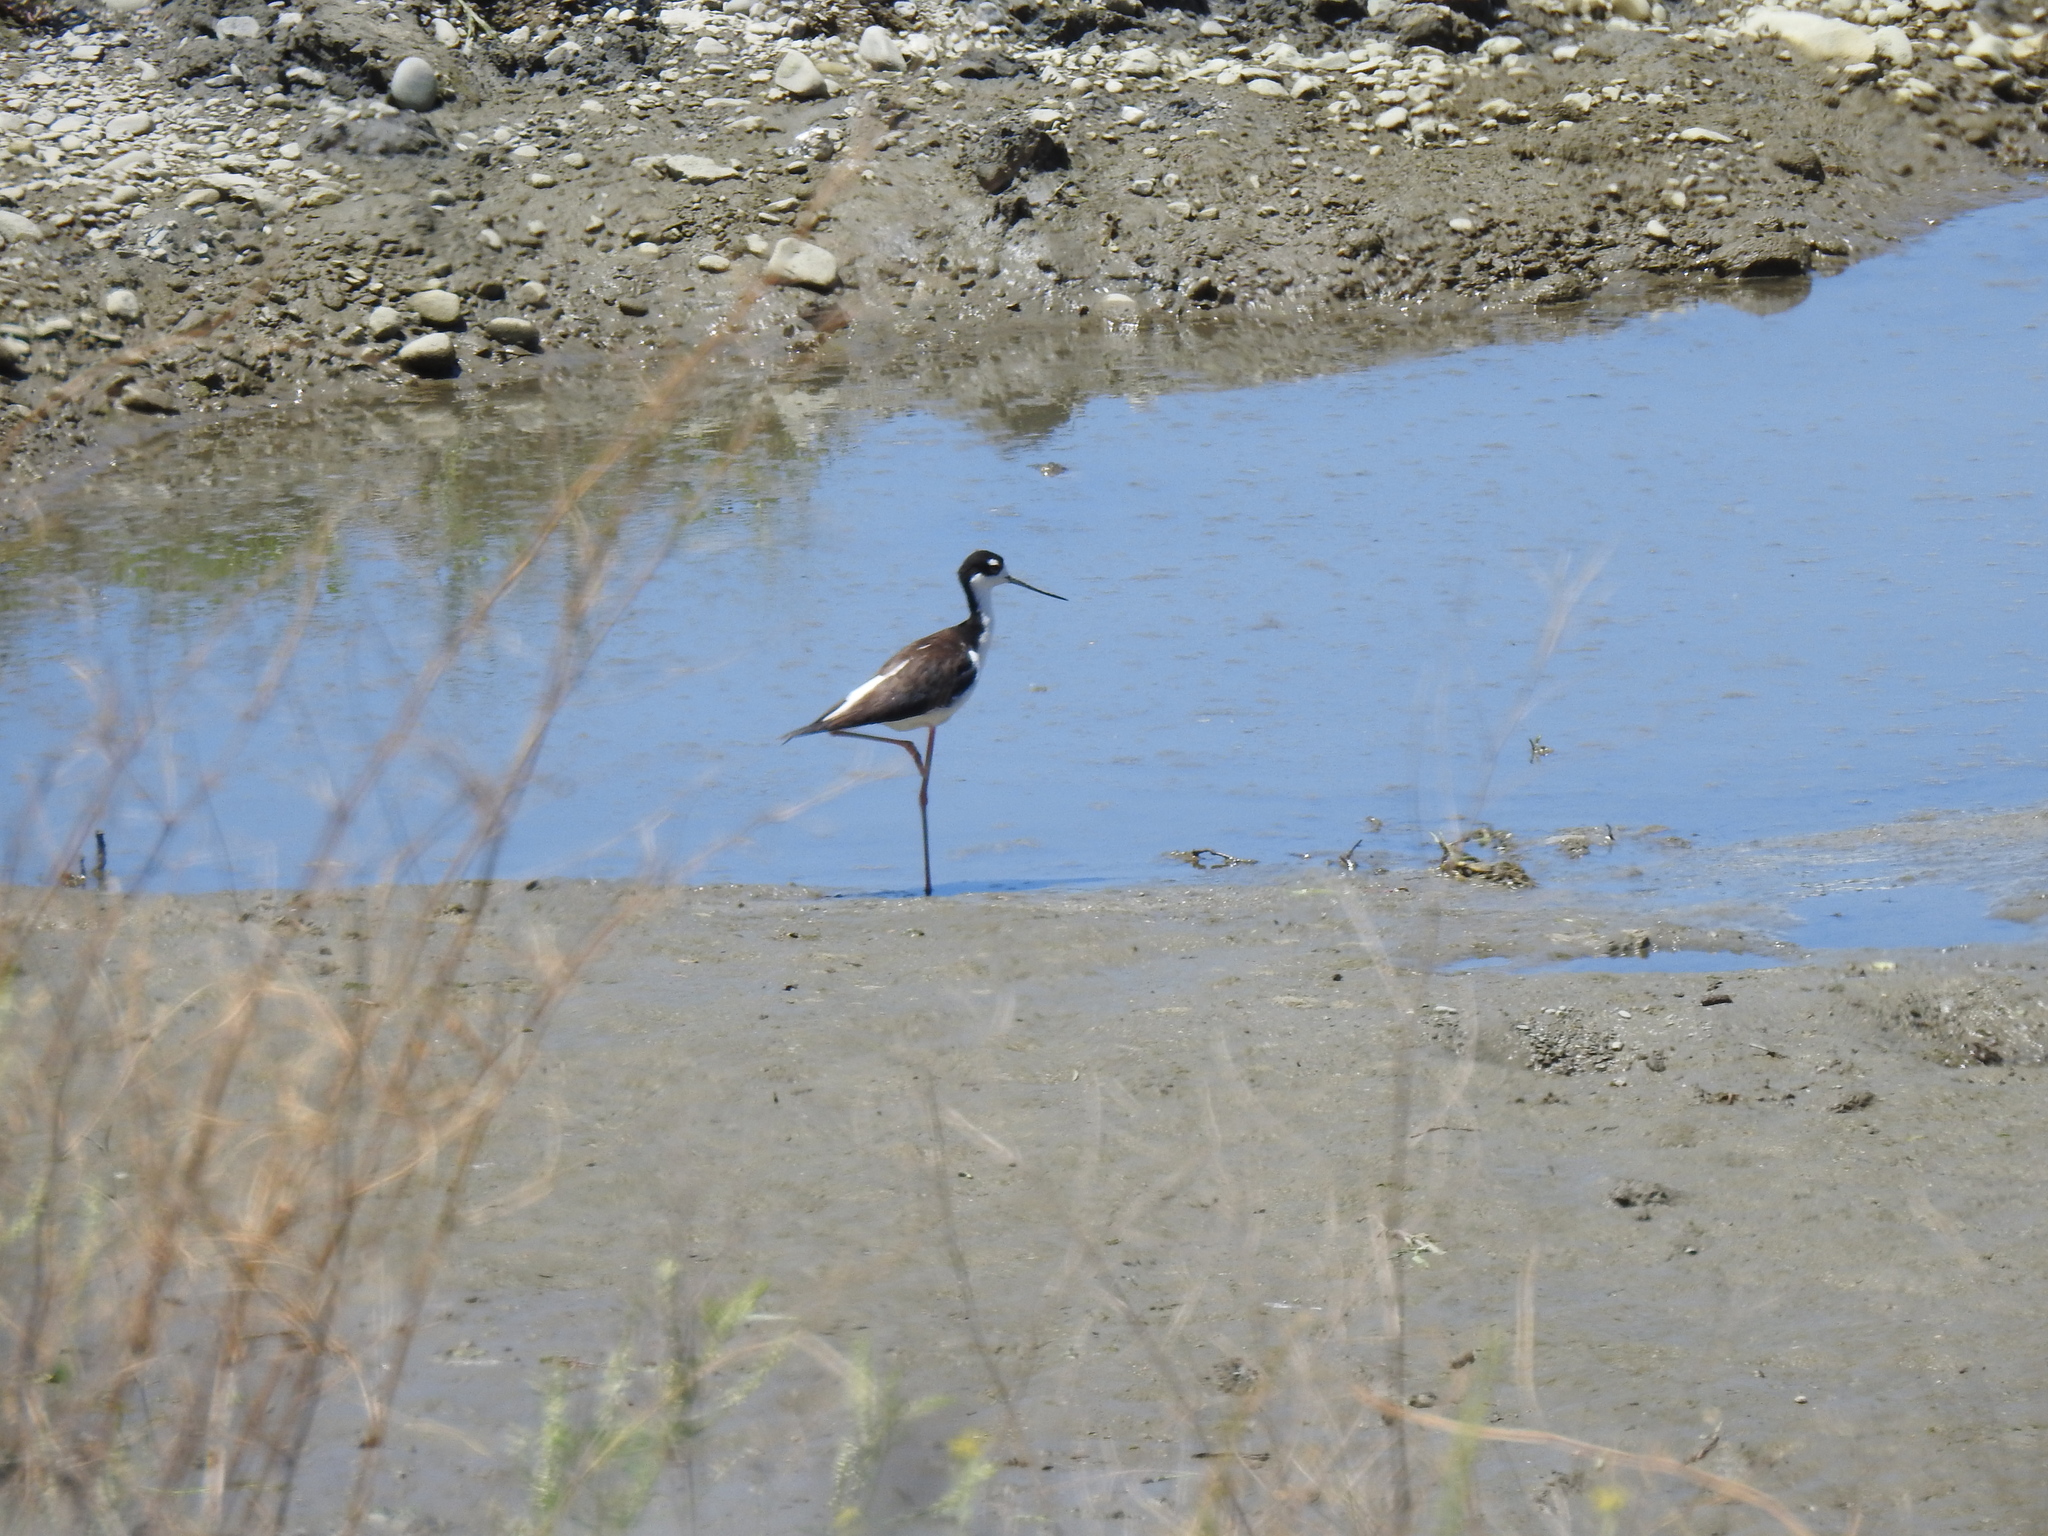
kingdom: Animalia
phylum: Chordata
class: Aves
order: Charadriiformes
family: Recurvirostridae
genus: Himantopus
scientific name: Himantopus mexicanus
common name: Black-necked stilt
